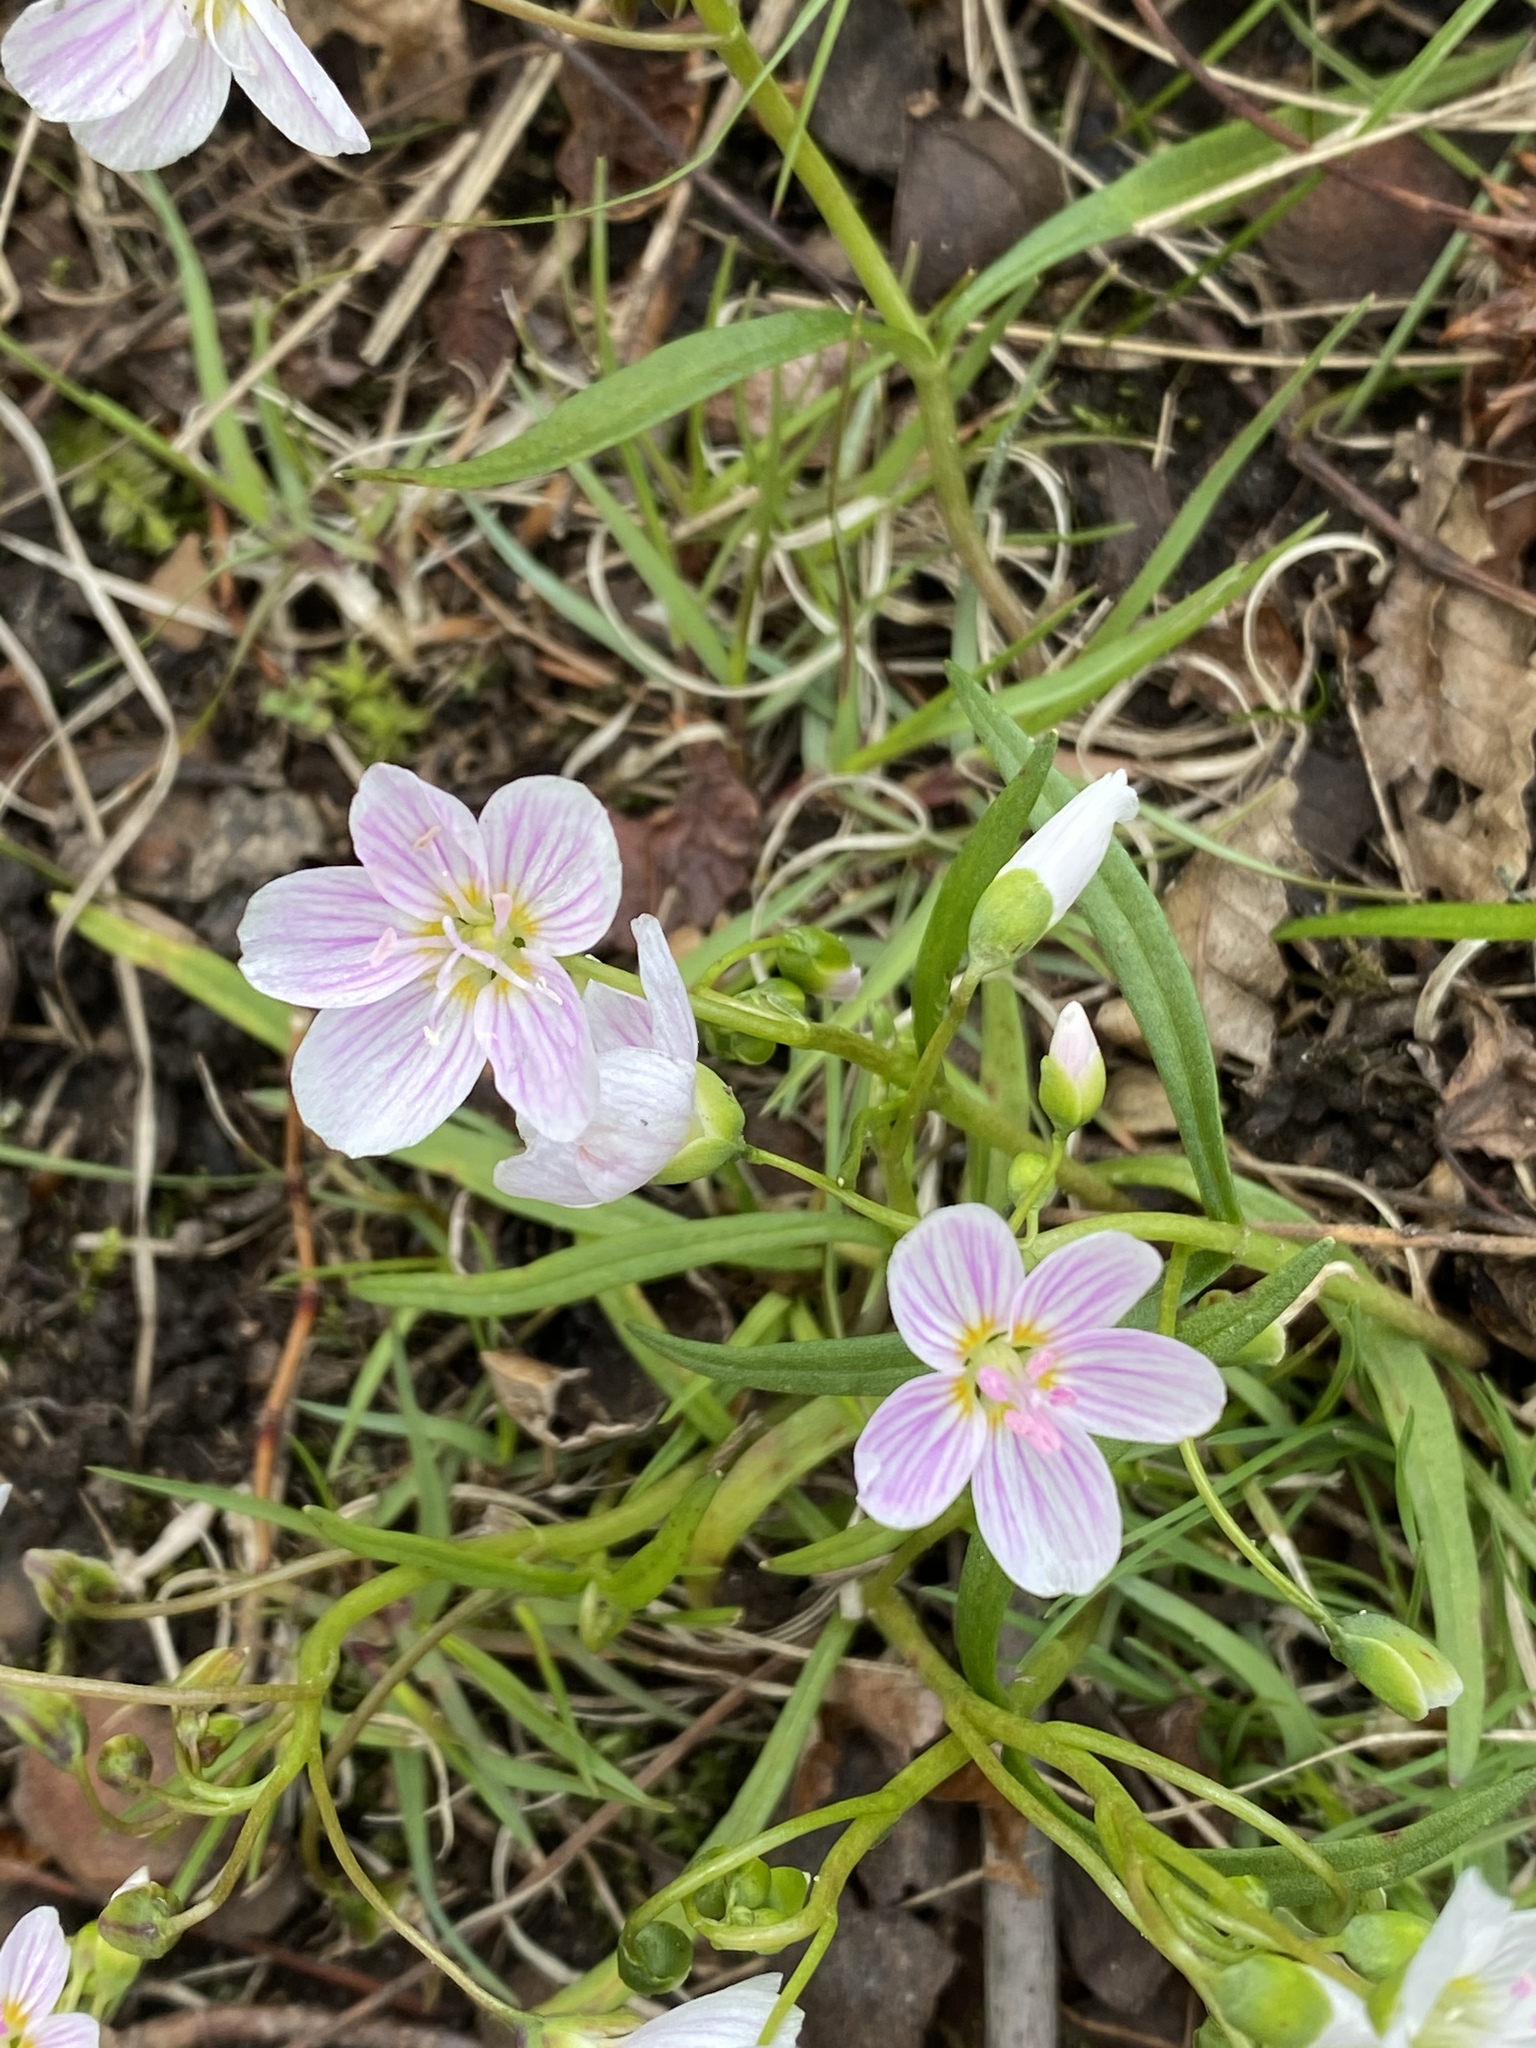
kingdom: Plantae
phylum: Tracheophyta
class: Magnoliopsida
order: Caryophyllales
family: Montiaceae
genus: Claytonia
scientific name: Claytonia virginica
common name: Virginia springbeauty
